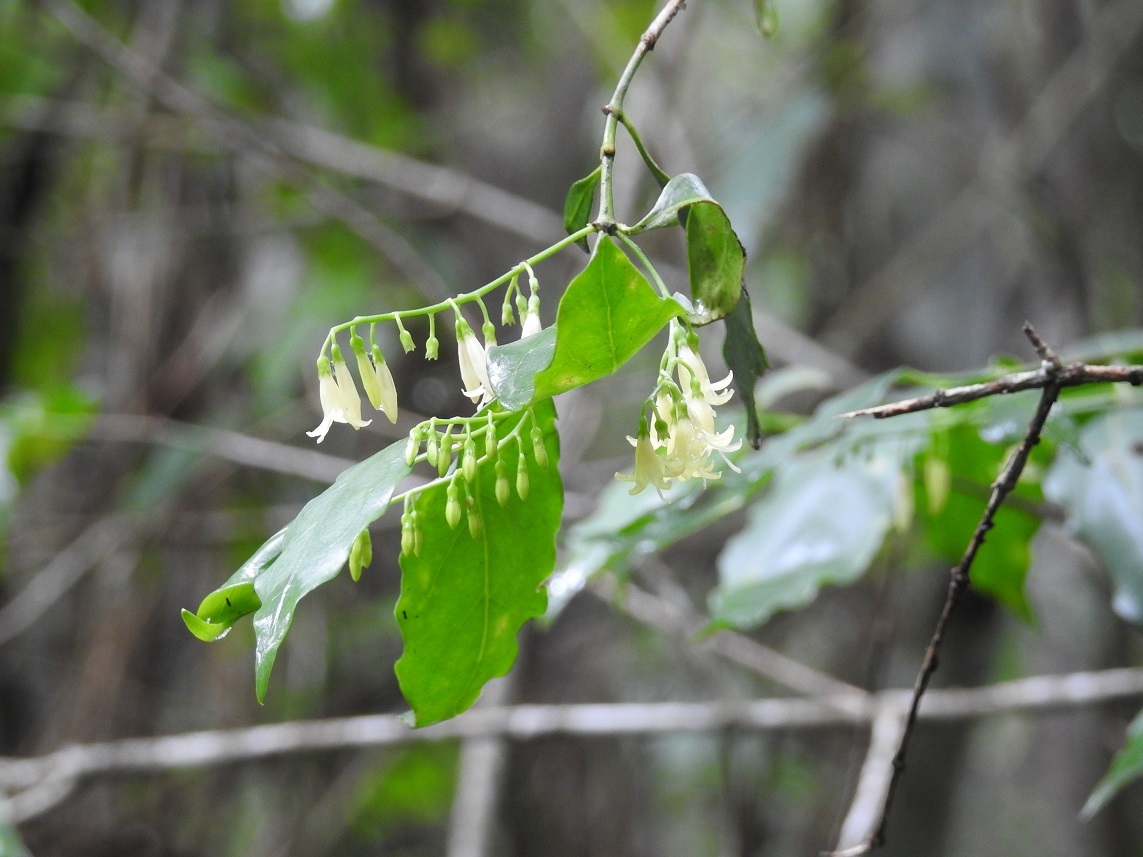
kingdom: Plantae
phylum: Tracheophyta
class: Magnoliopsida
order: Gentianales
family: Rubiaceae
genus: Chiococca
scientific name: Chiococca alba
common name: Snowberry
